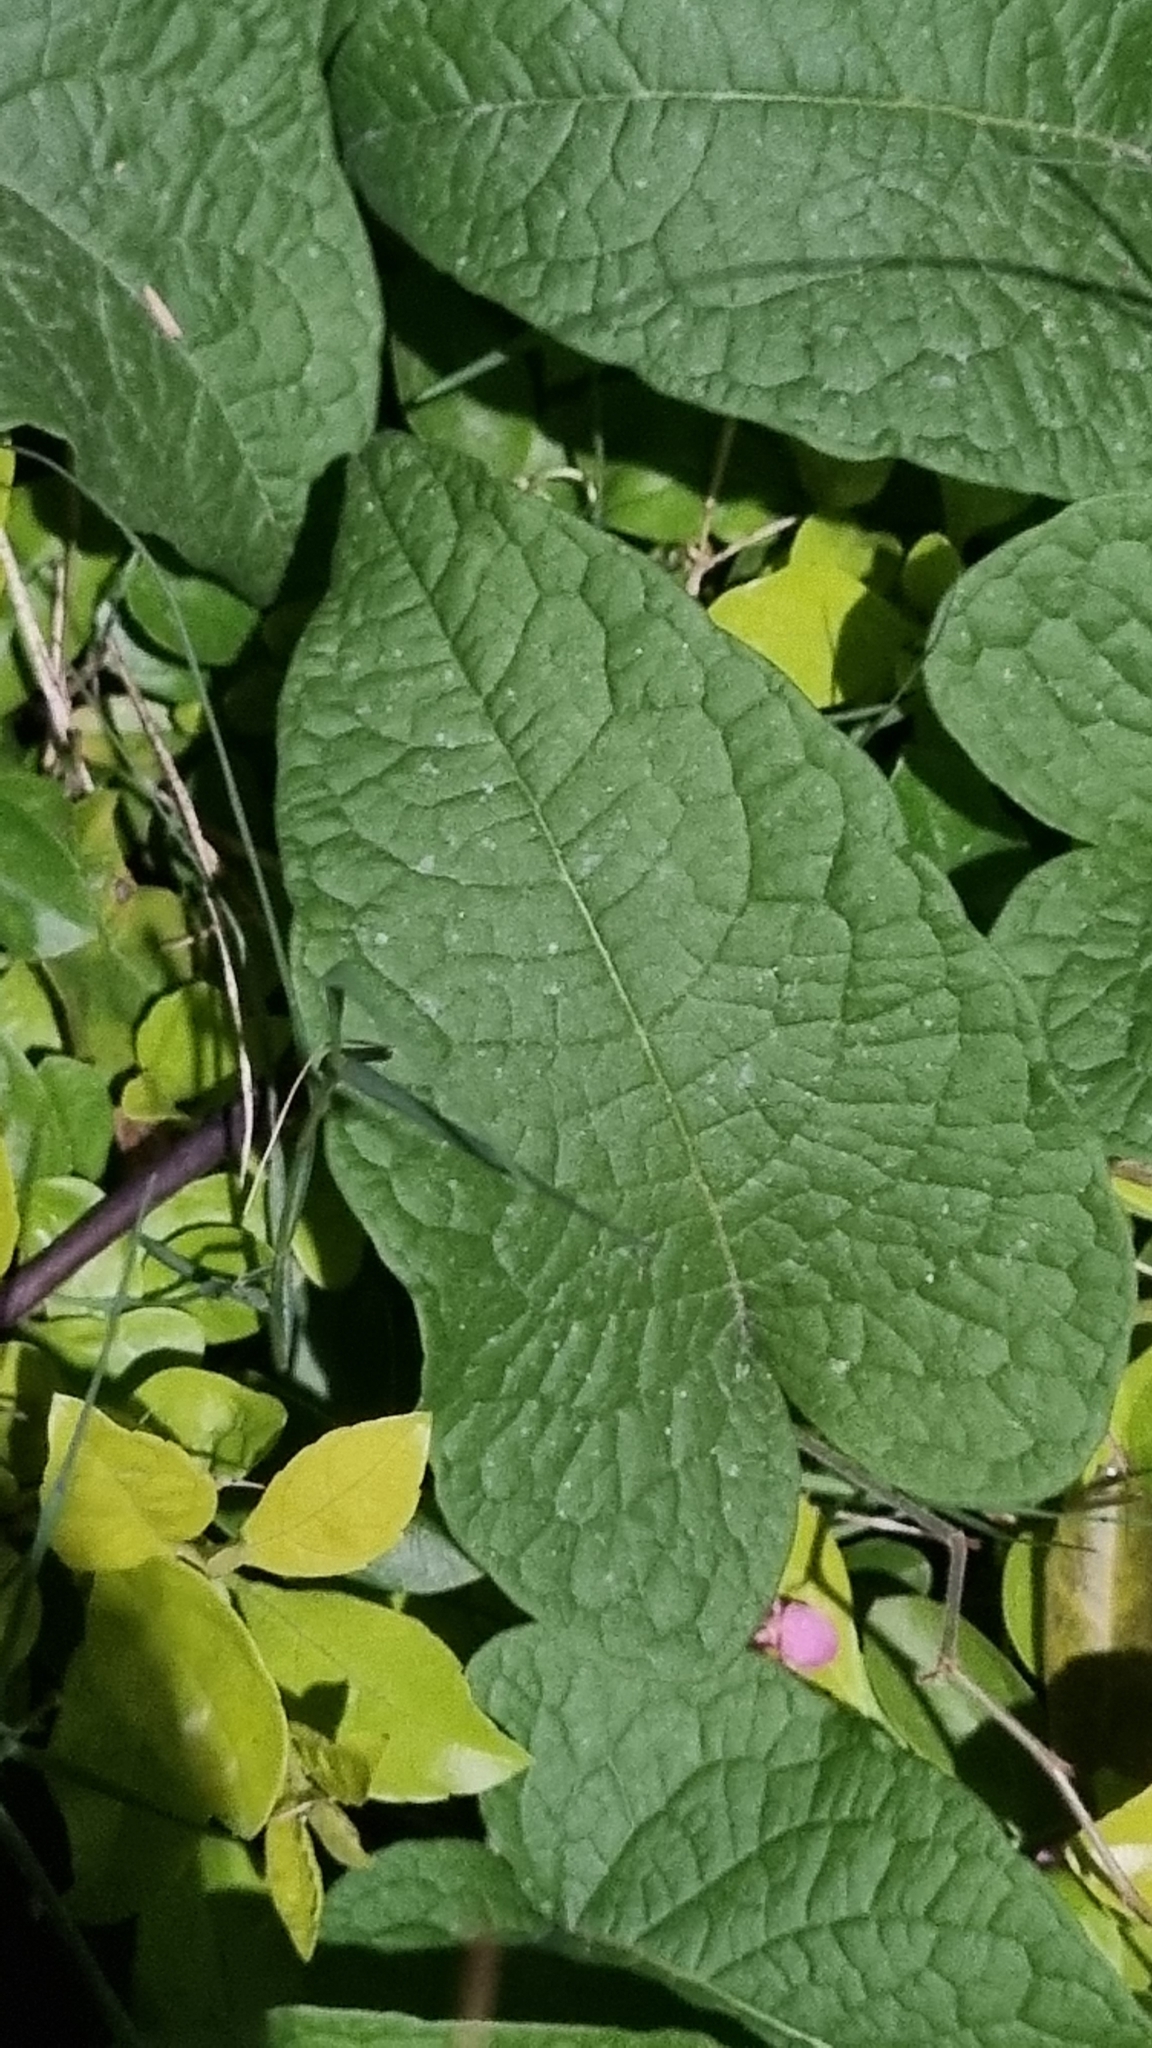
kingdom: Plantae
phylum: Tracheophyta
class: Magnoliopsida
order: Caryophyllales
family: Polygonaceae
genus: Antigonon
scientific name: Antigonon leptopus
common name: Coral vine
